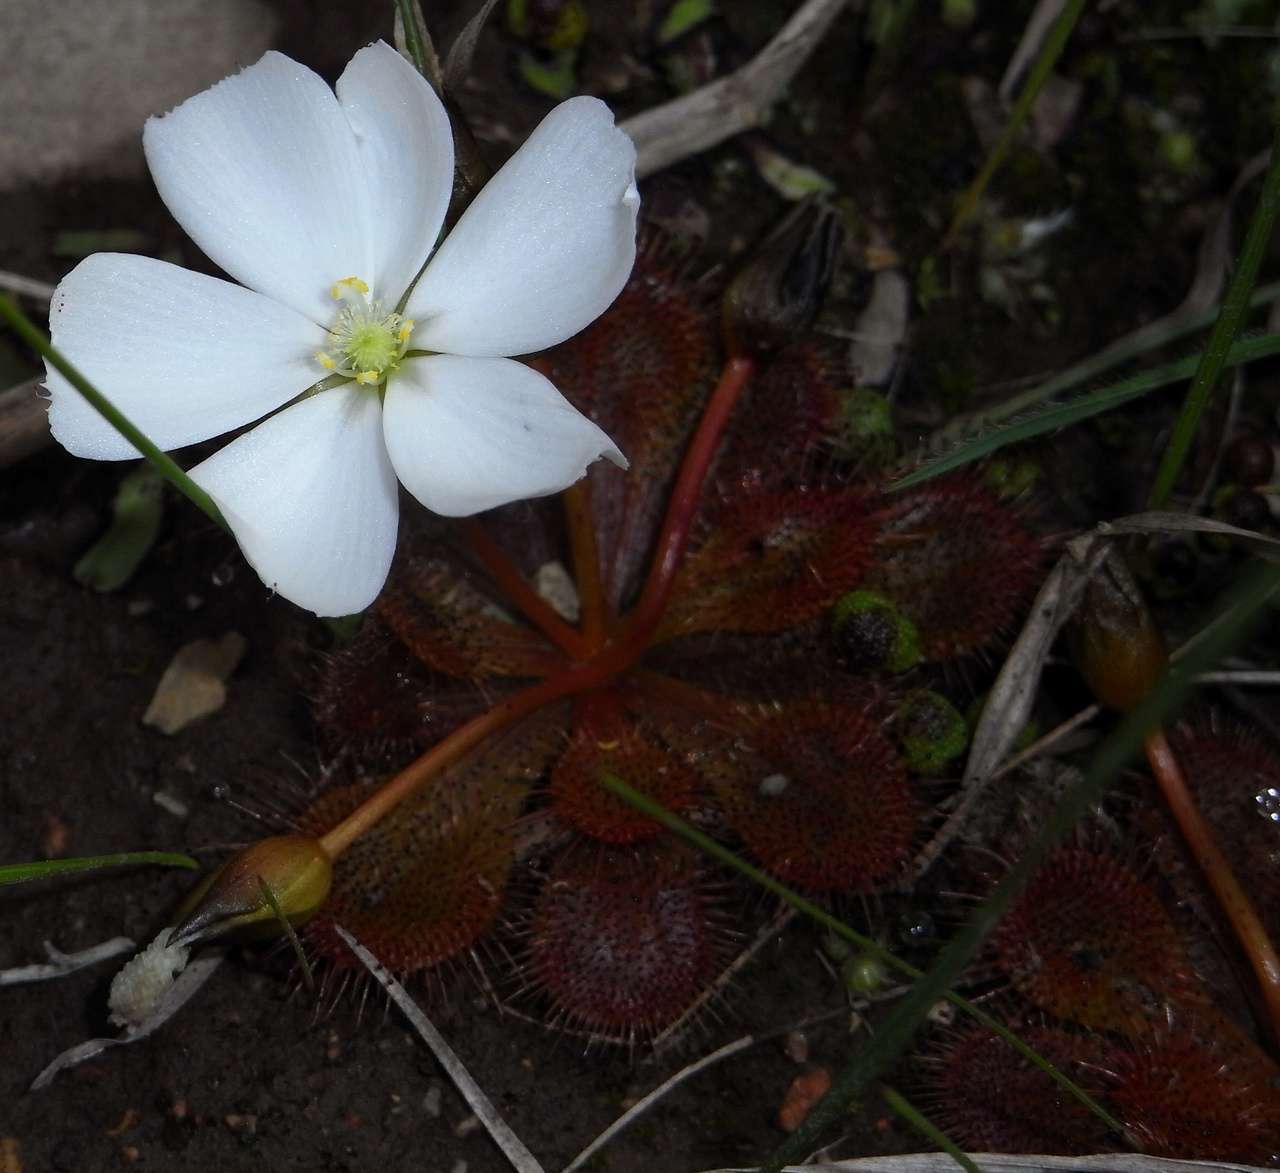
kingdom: Plantae
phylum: Tracheophyta
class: Magnoliopsida
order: Caryophyllales
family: Droseraceae
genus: Drosera
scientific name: Drosera aberrans
